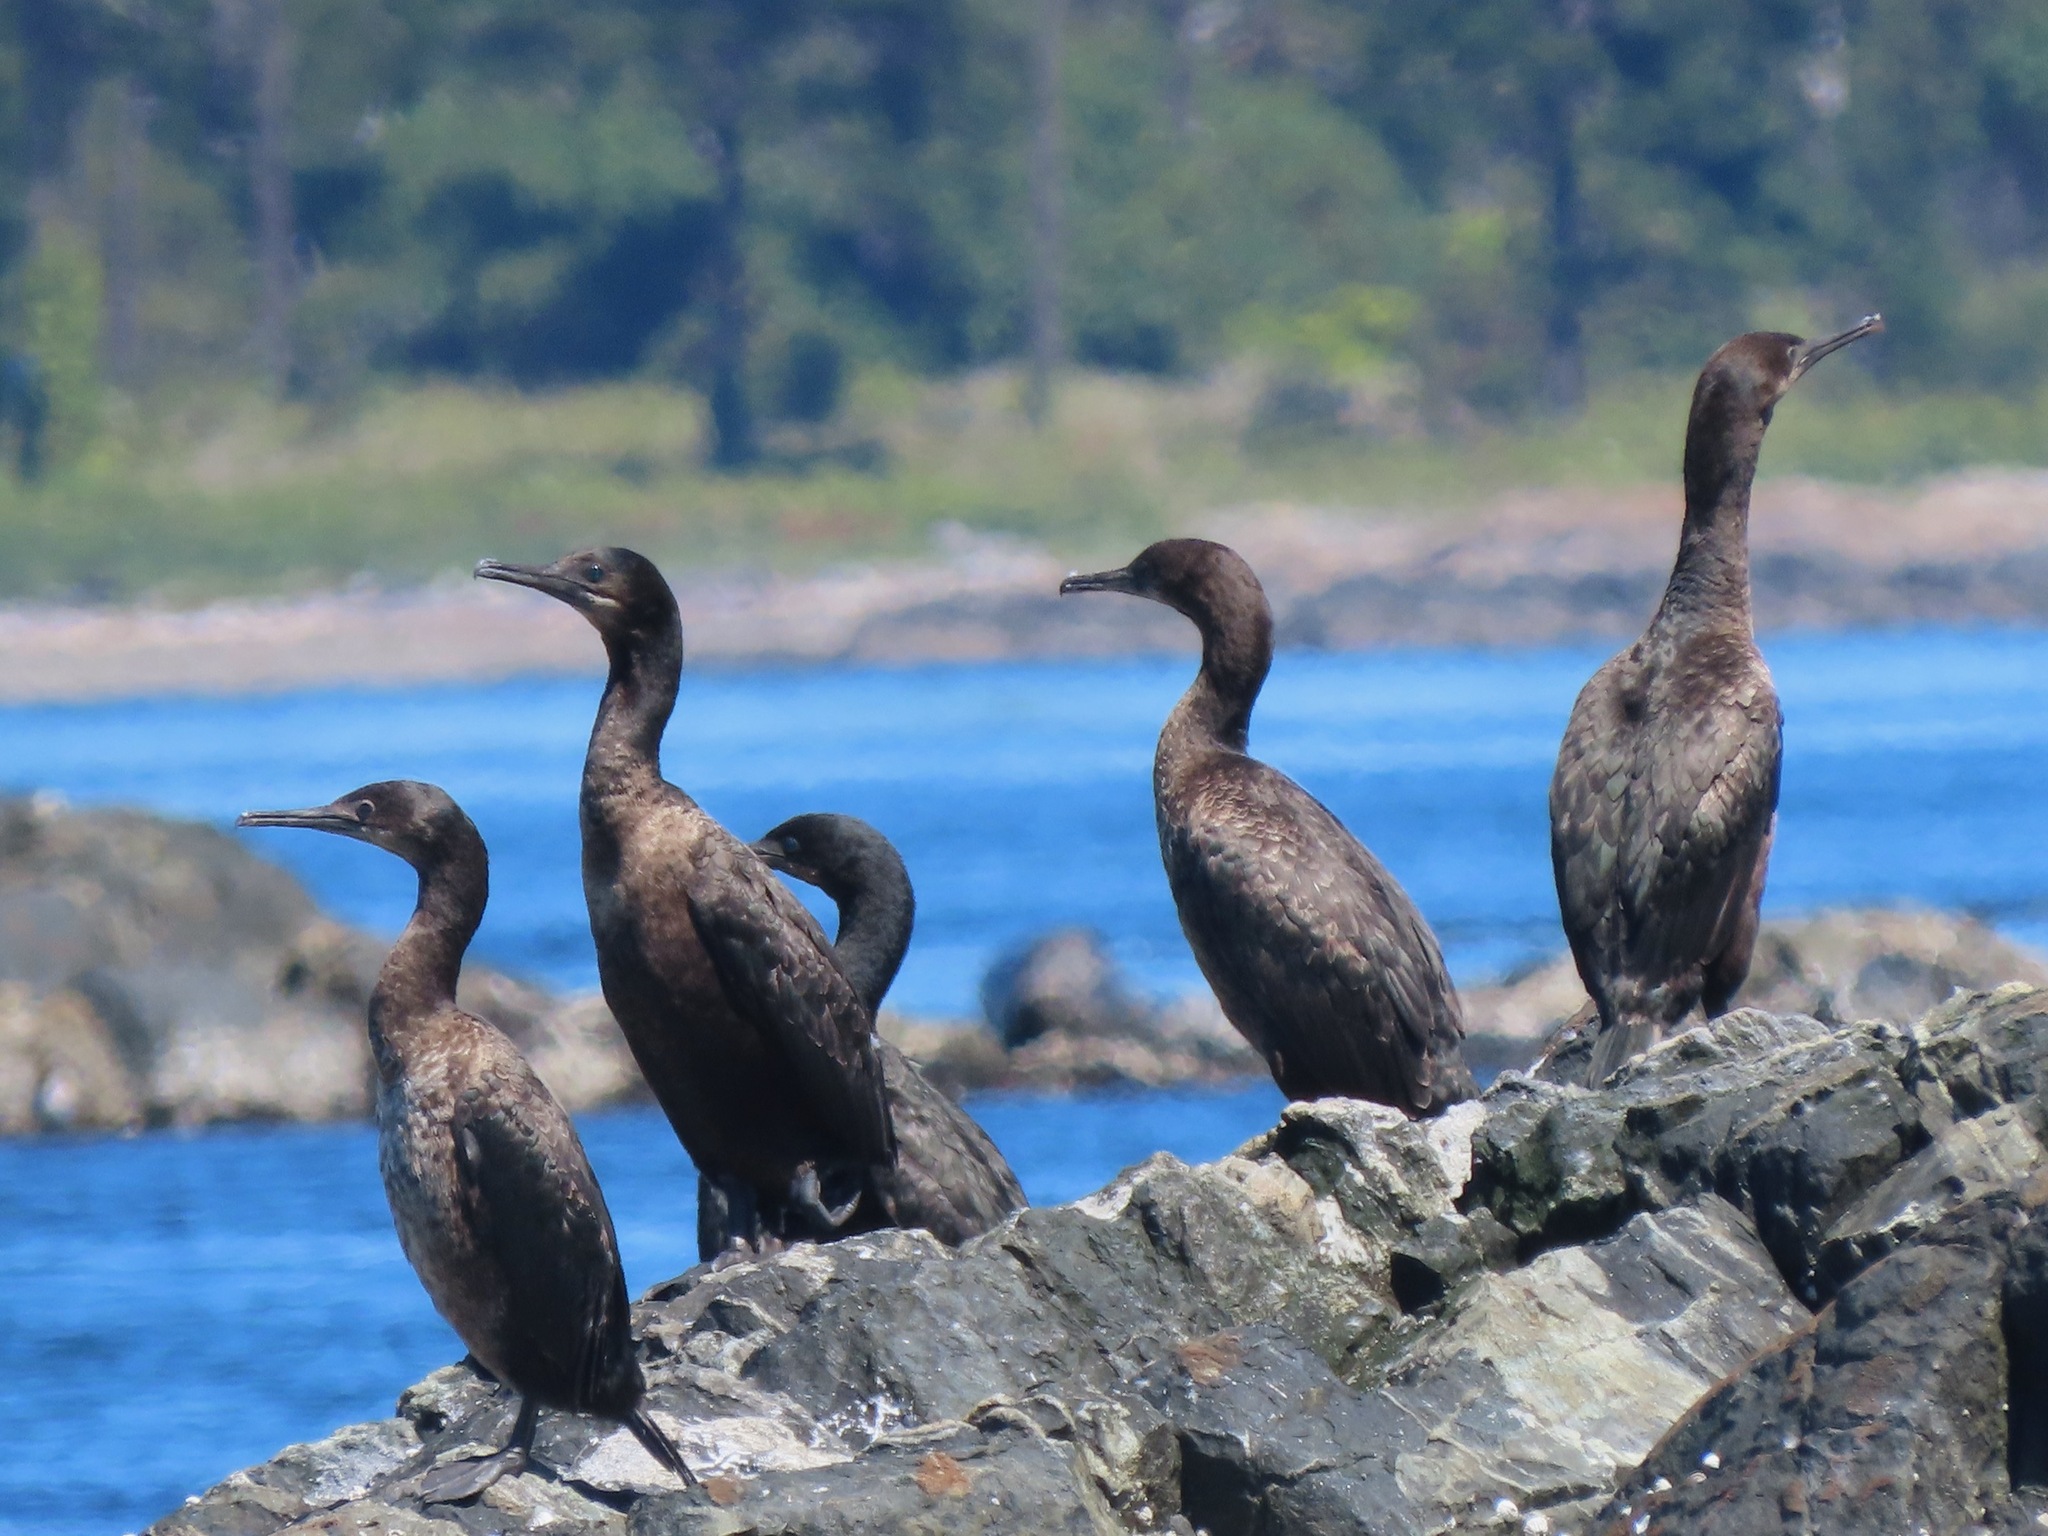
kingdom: Animalia
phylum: Chordata
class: Aves
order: Suliformes
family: Phalacrocoracidae
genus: Urile
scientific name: Urile penicillatus
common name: Brandt's cormorant
